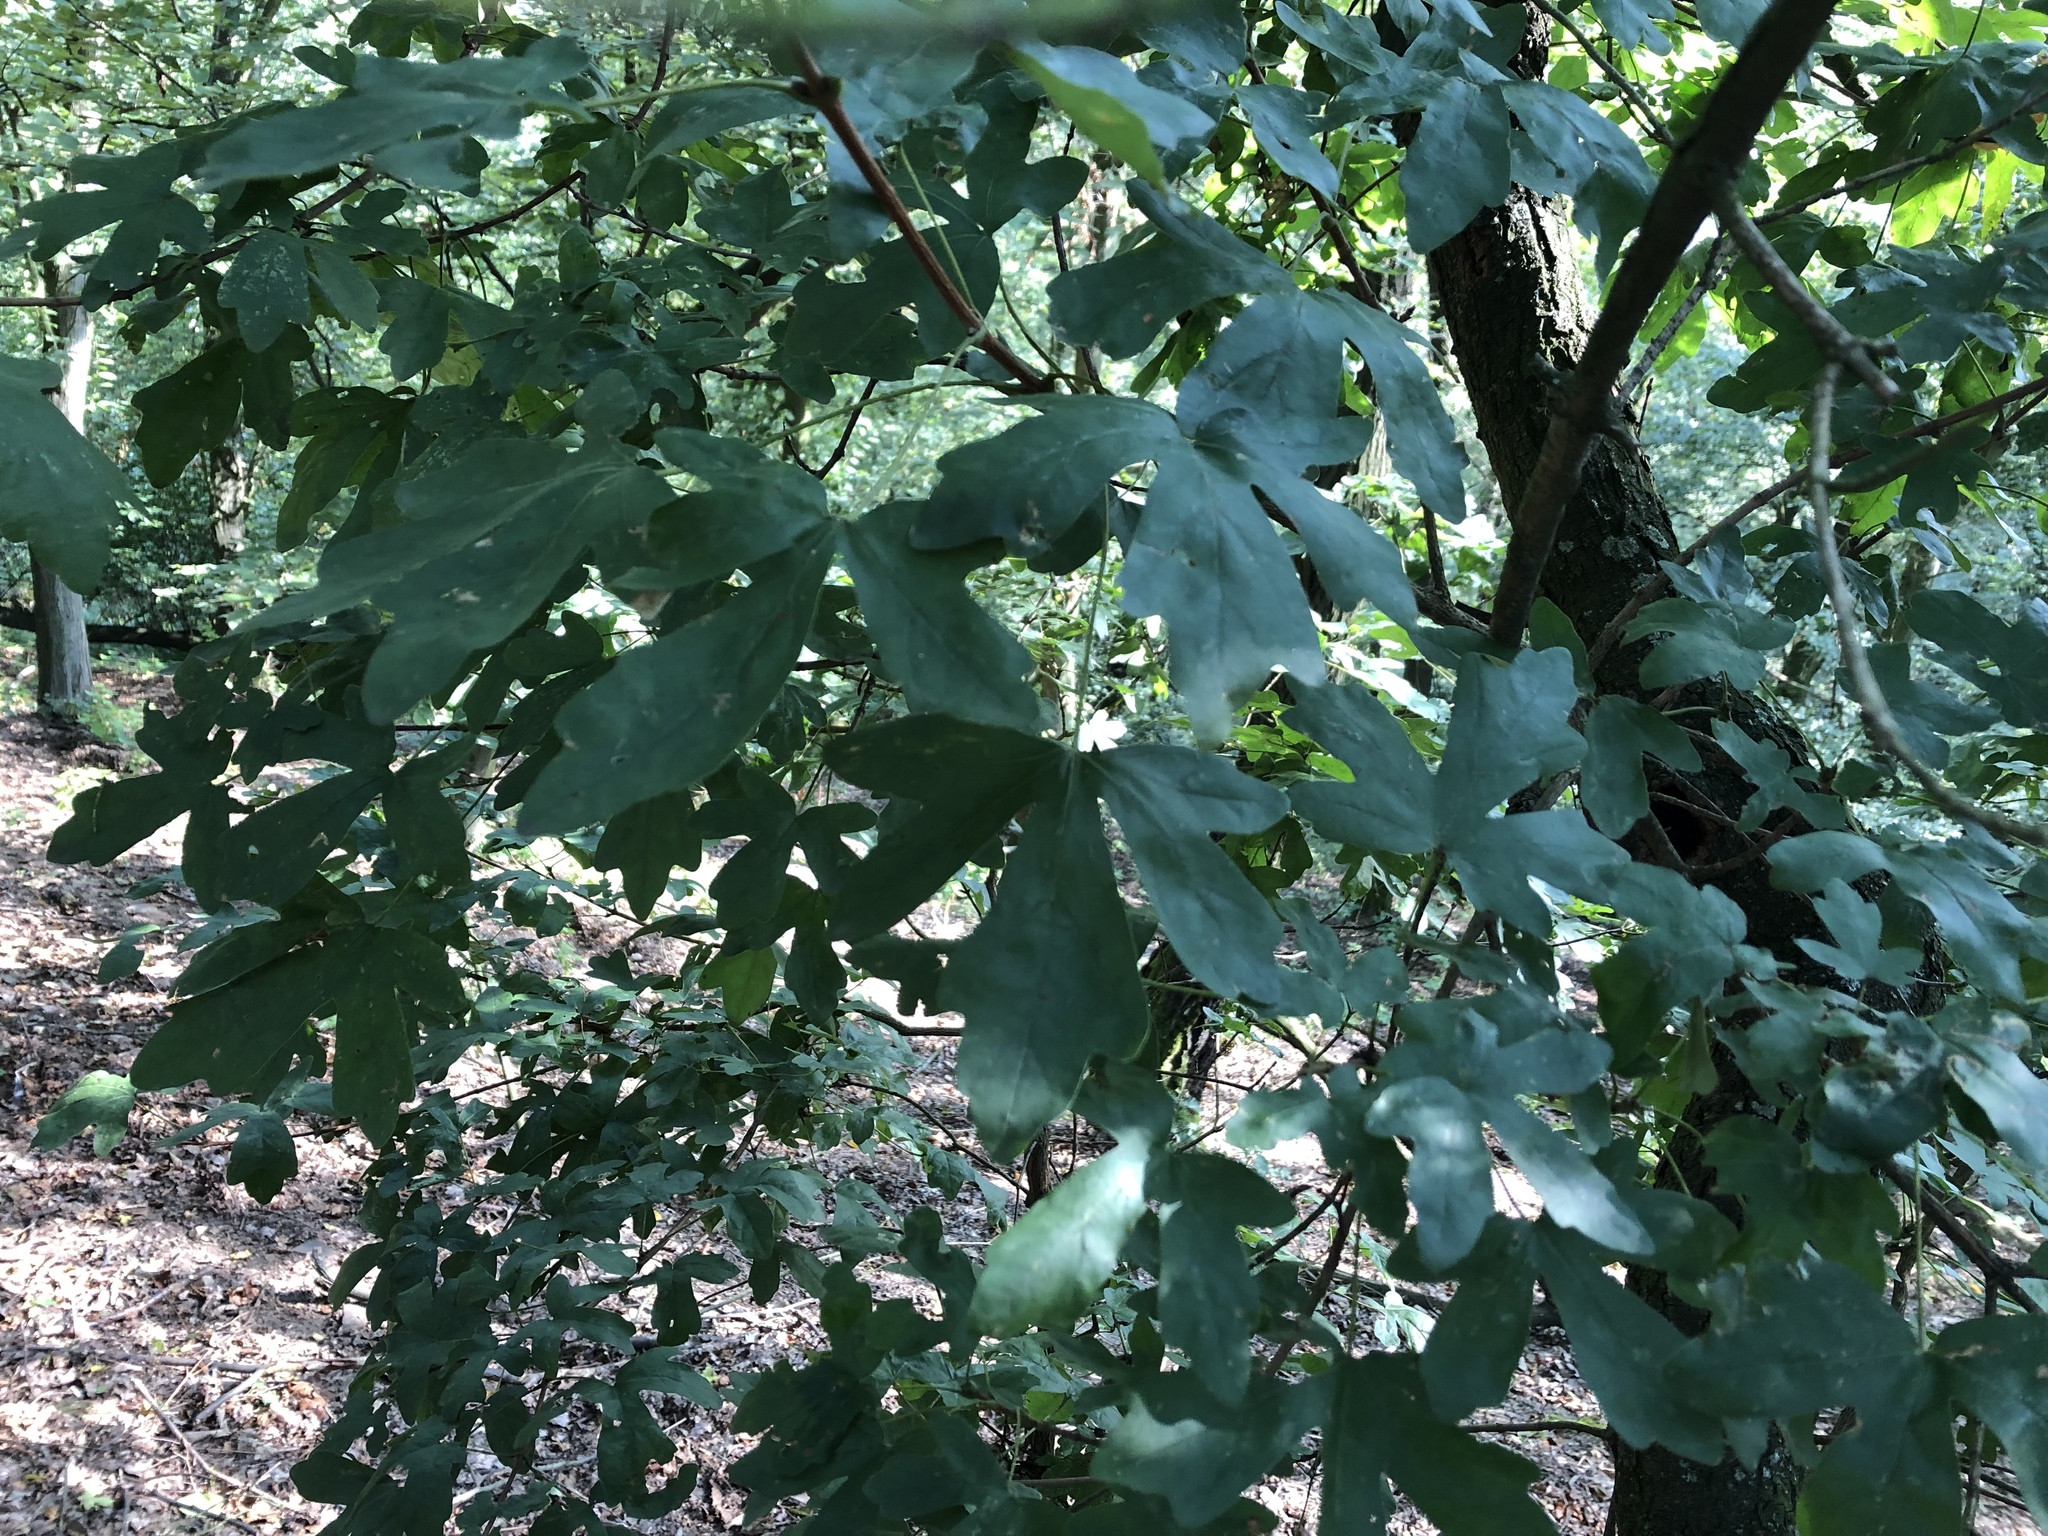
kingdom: Plantae
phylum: Tracheophyta
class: Magnoliopsida
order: Sapindales
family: Sapindaceae
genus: Acer
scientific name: Acer campestre
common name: Field maple
